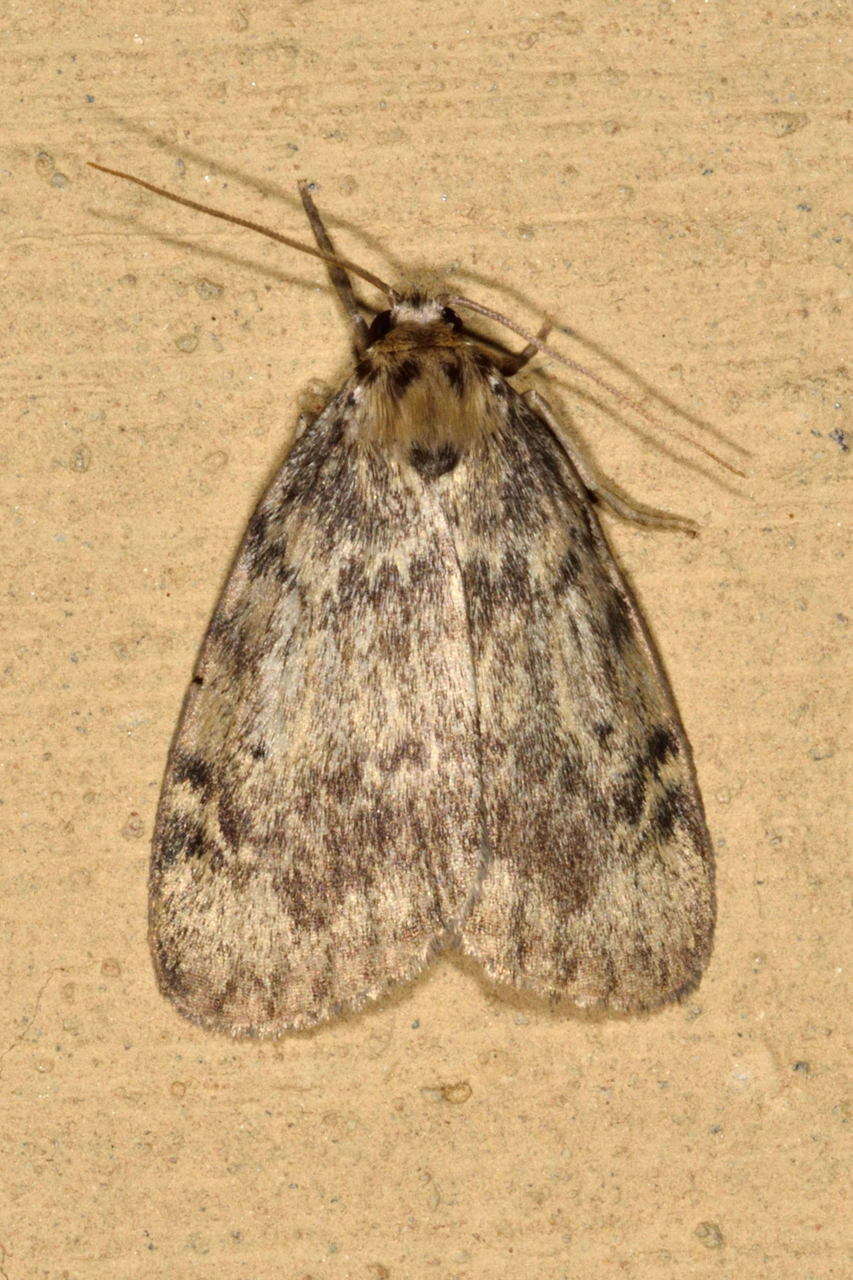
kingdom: Animalia
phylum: Arthropoda
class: Insecta
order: Lepidoptera
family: Erebidae
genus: Hectobrocha
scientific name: Hectobrocha adoxa
